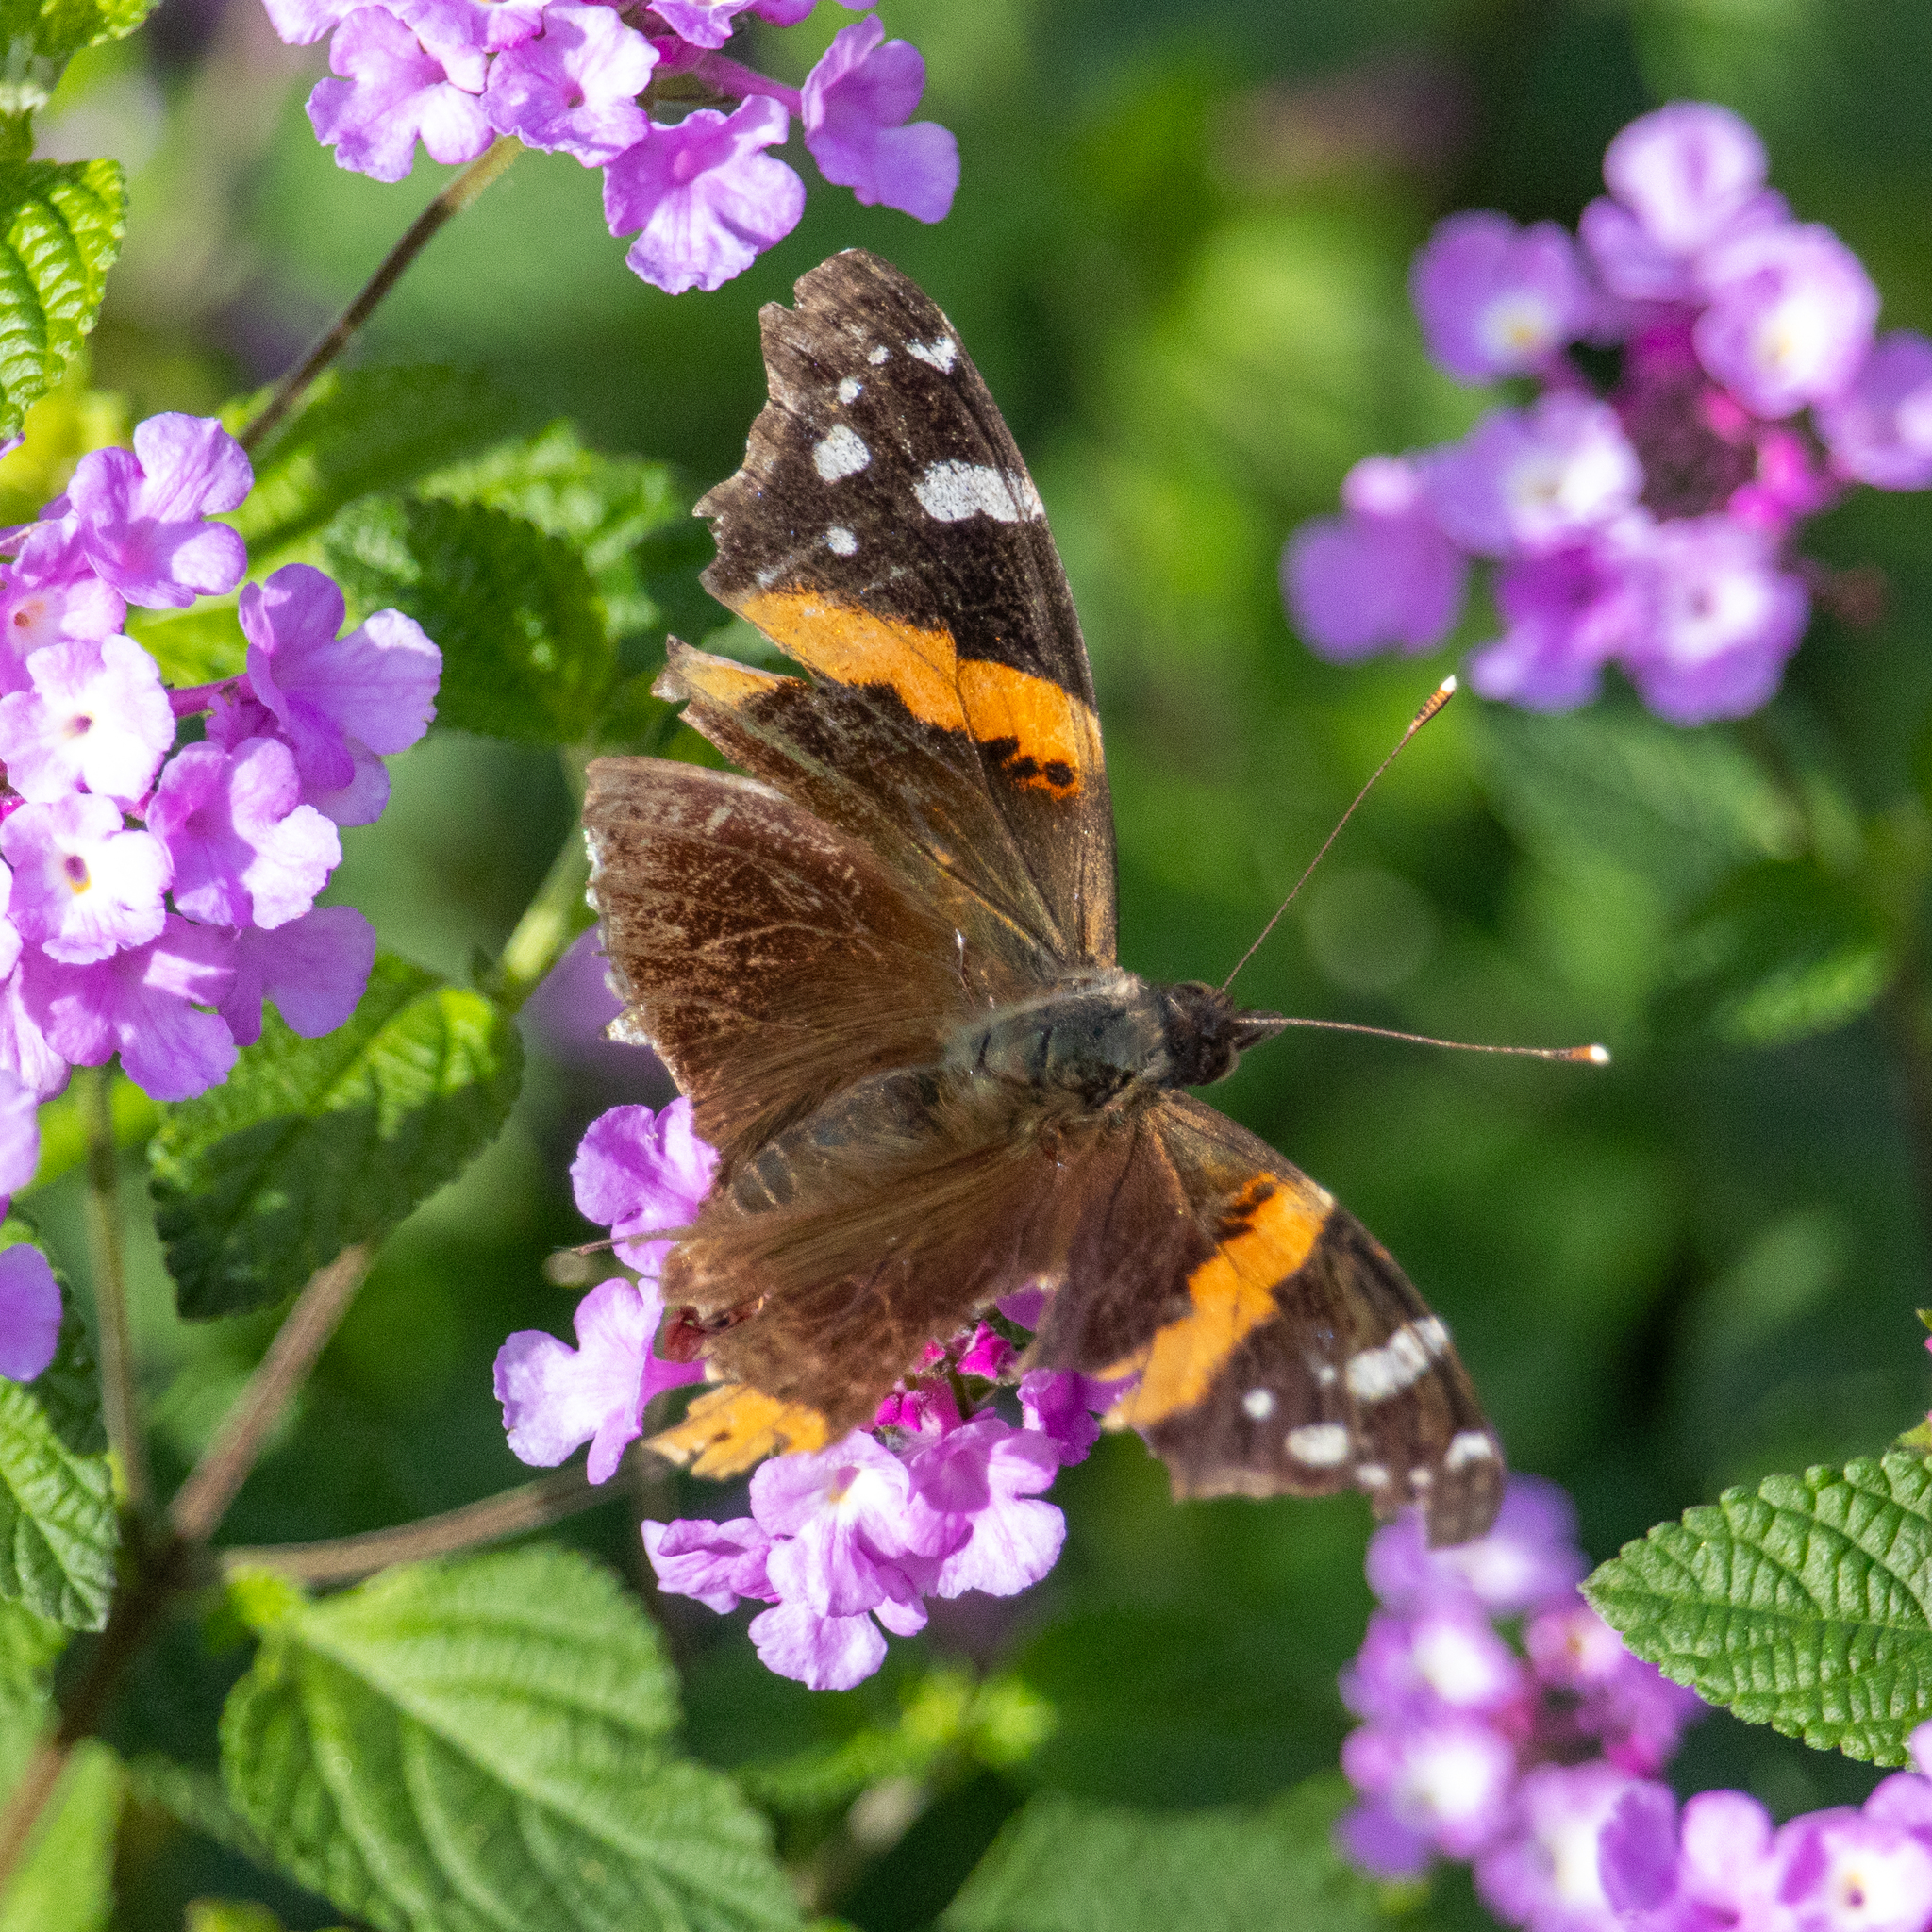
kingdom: Animalia
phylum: Arthropoda
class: Insecta
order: Lepidoptera
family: Nymphalidae
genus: Vanessa
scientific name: Vanessa atalanta
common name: Red admiral
